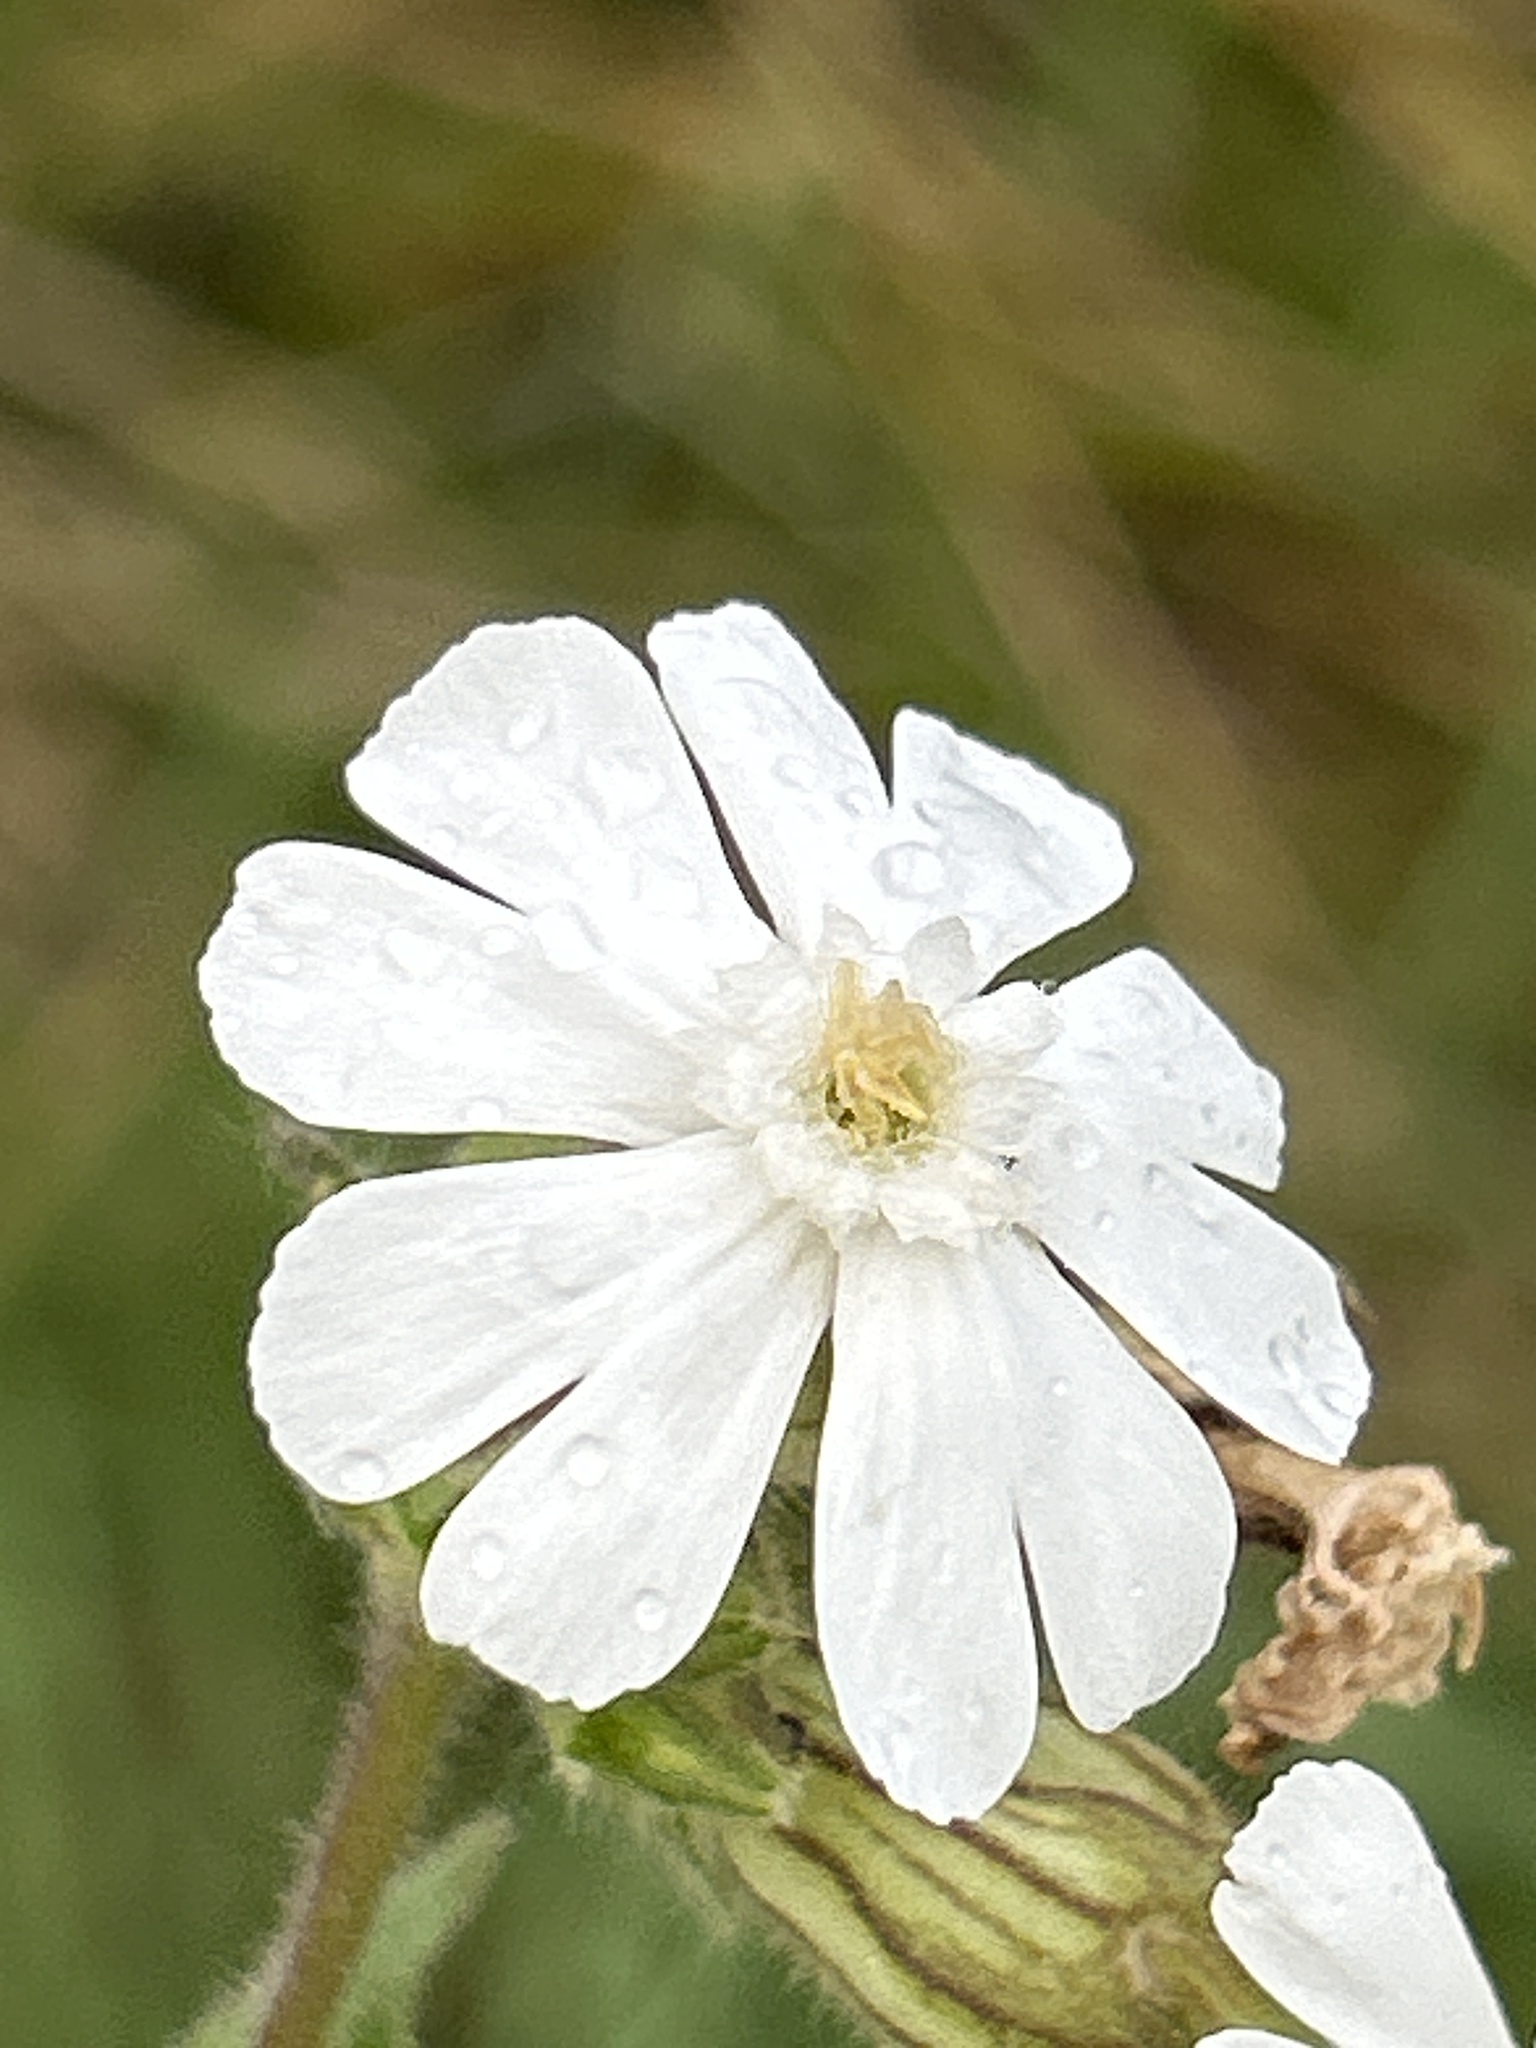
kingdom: Plantae
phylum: Tracheophyta
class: Magnoliopsida
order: Caryophyllales
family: Caryophyllaceae
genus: Silene
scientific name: Silene latifolia
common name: White campion
